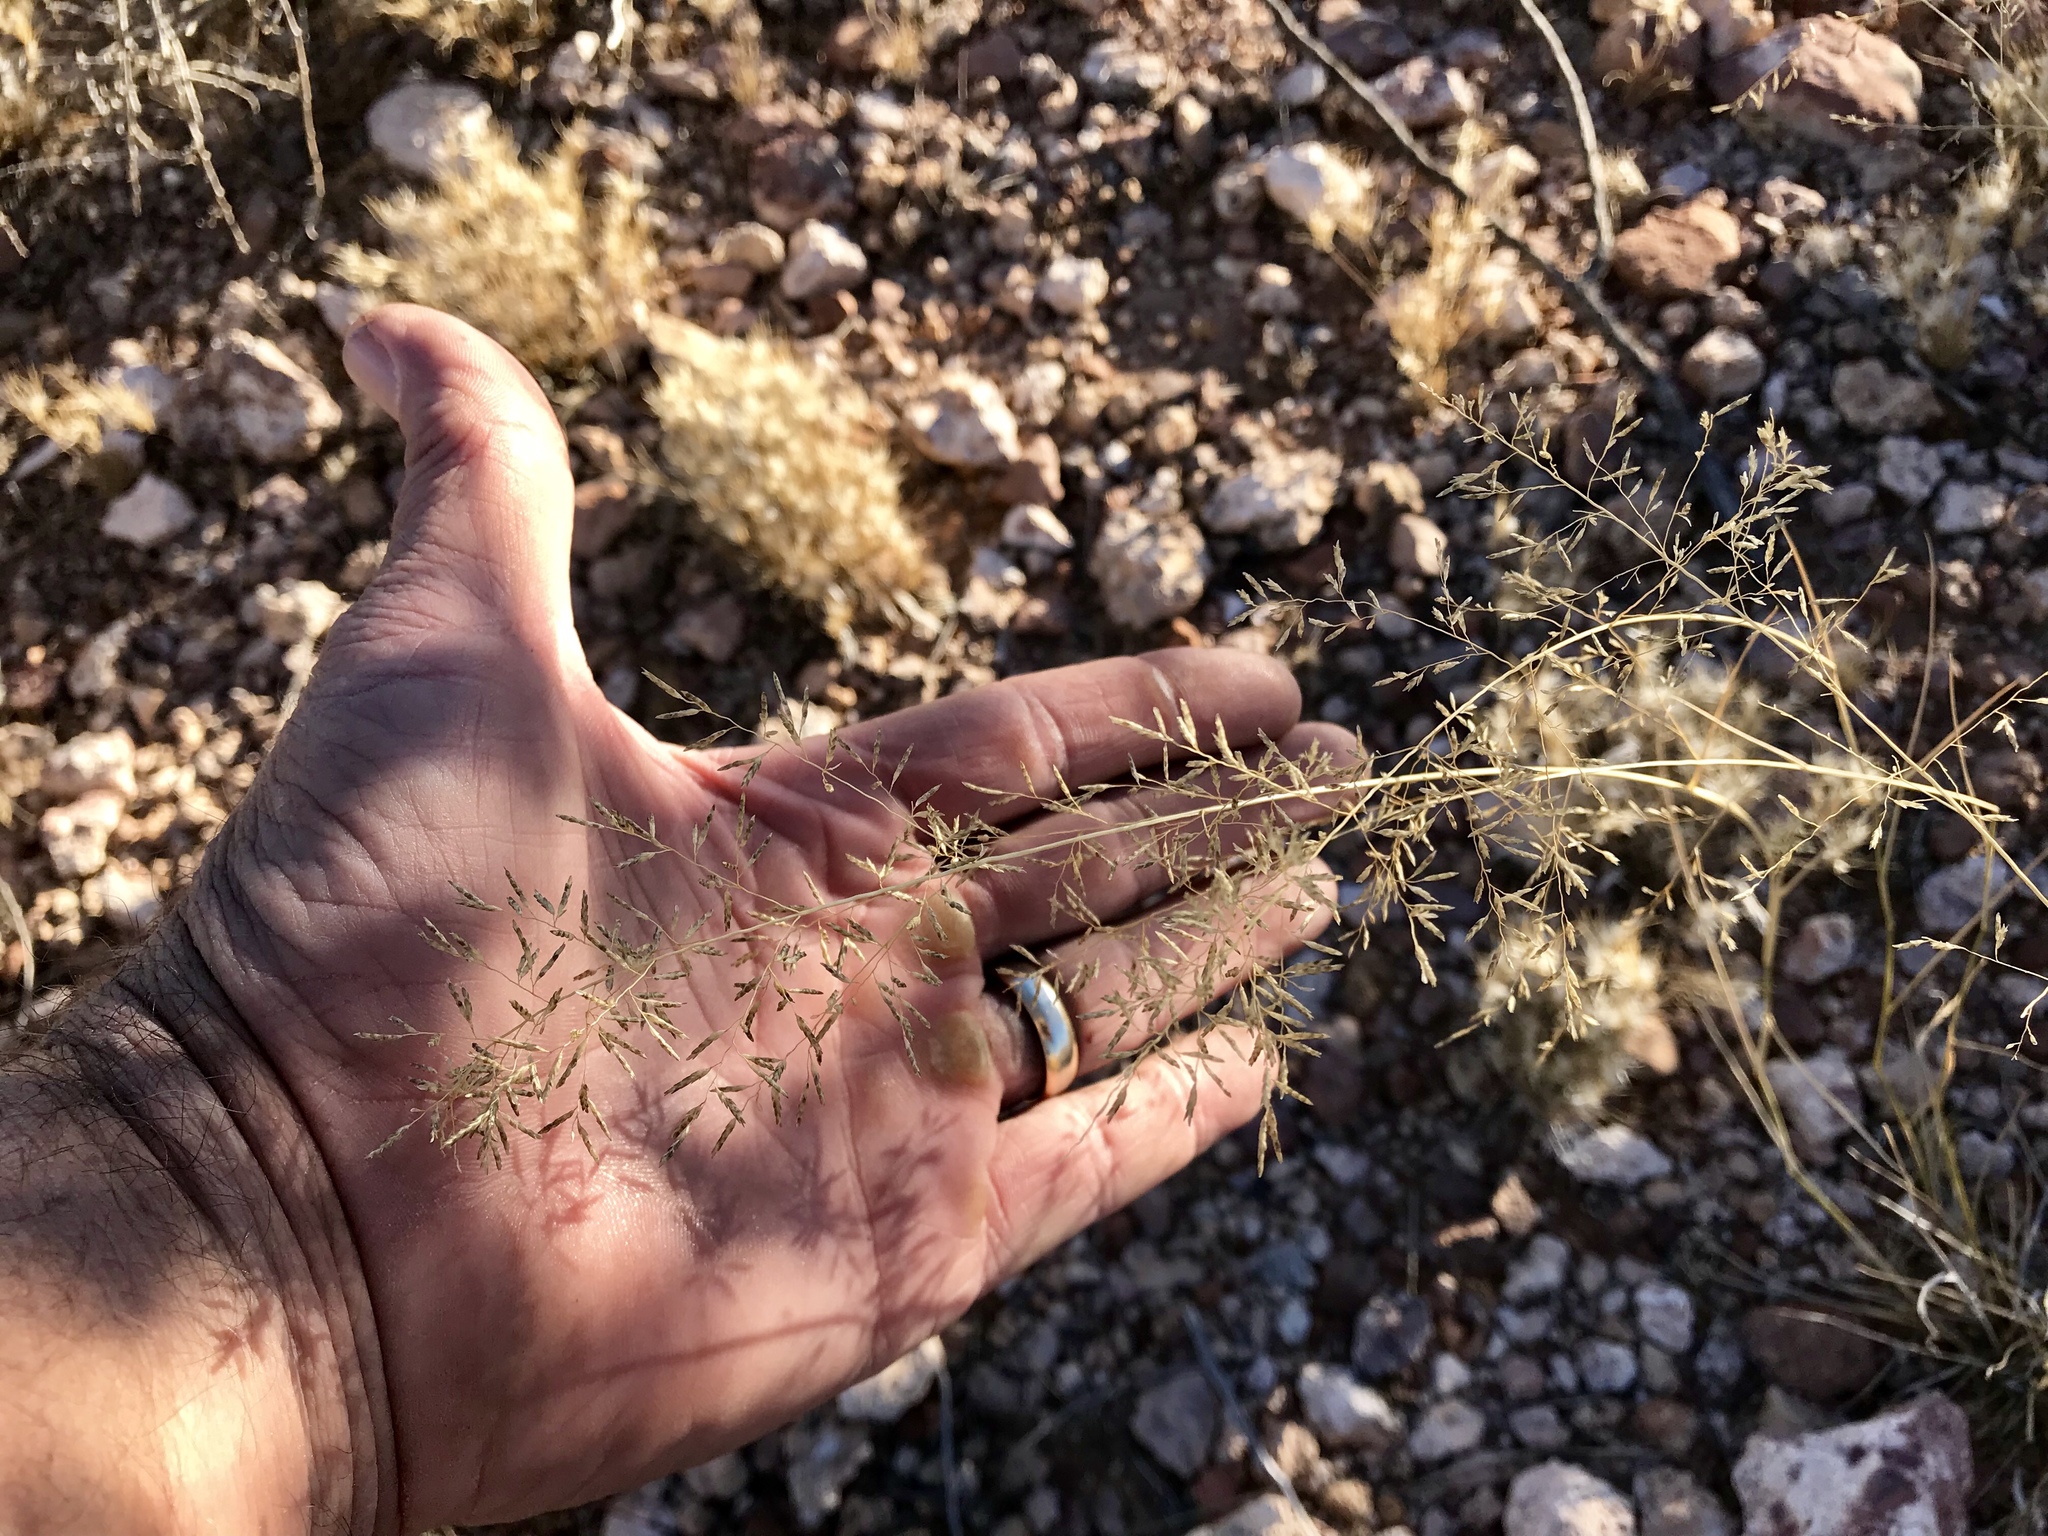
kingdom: Plantae
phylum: Tracheophyta
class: Liliopsida
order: Poales
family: Poaceae
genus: Eragrostis
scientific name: Eragrostis lehmanniana
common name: Lehmann lovegrass
